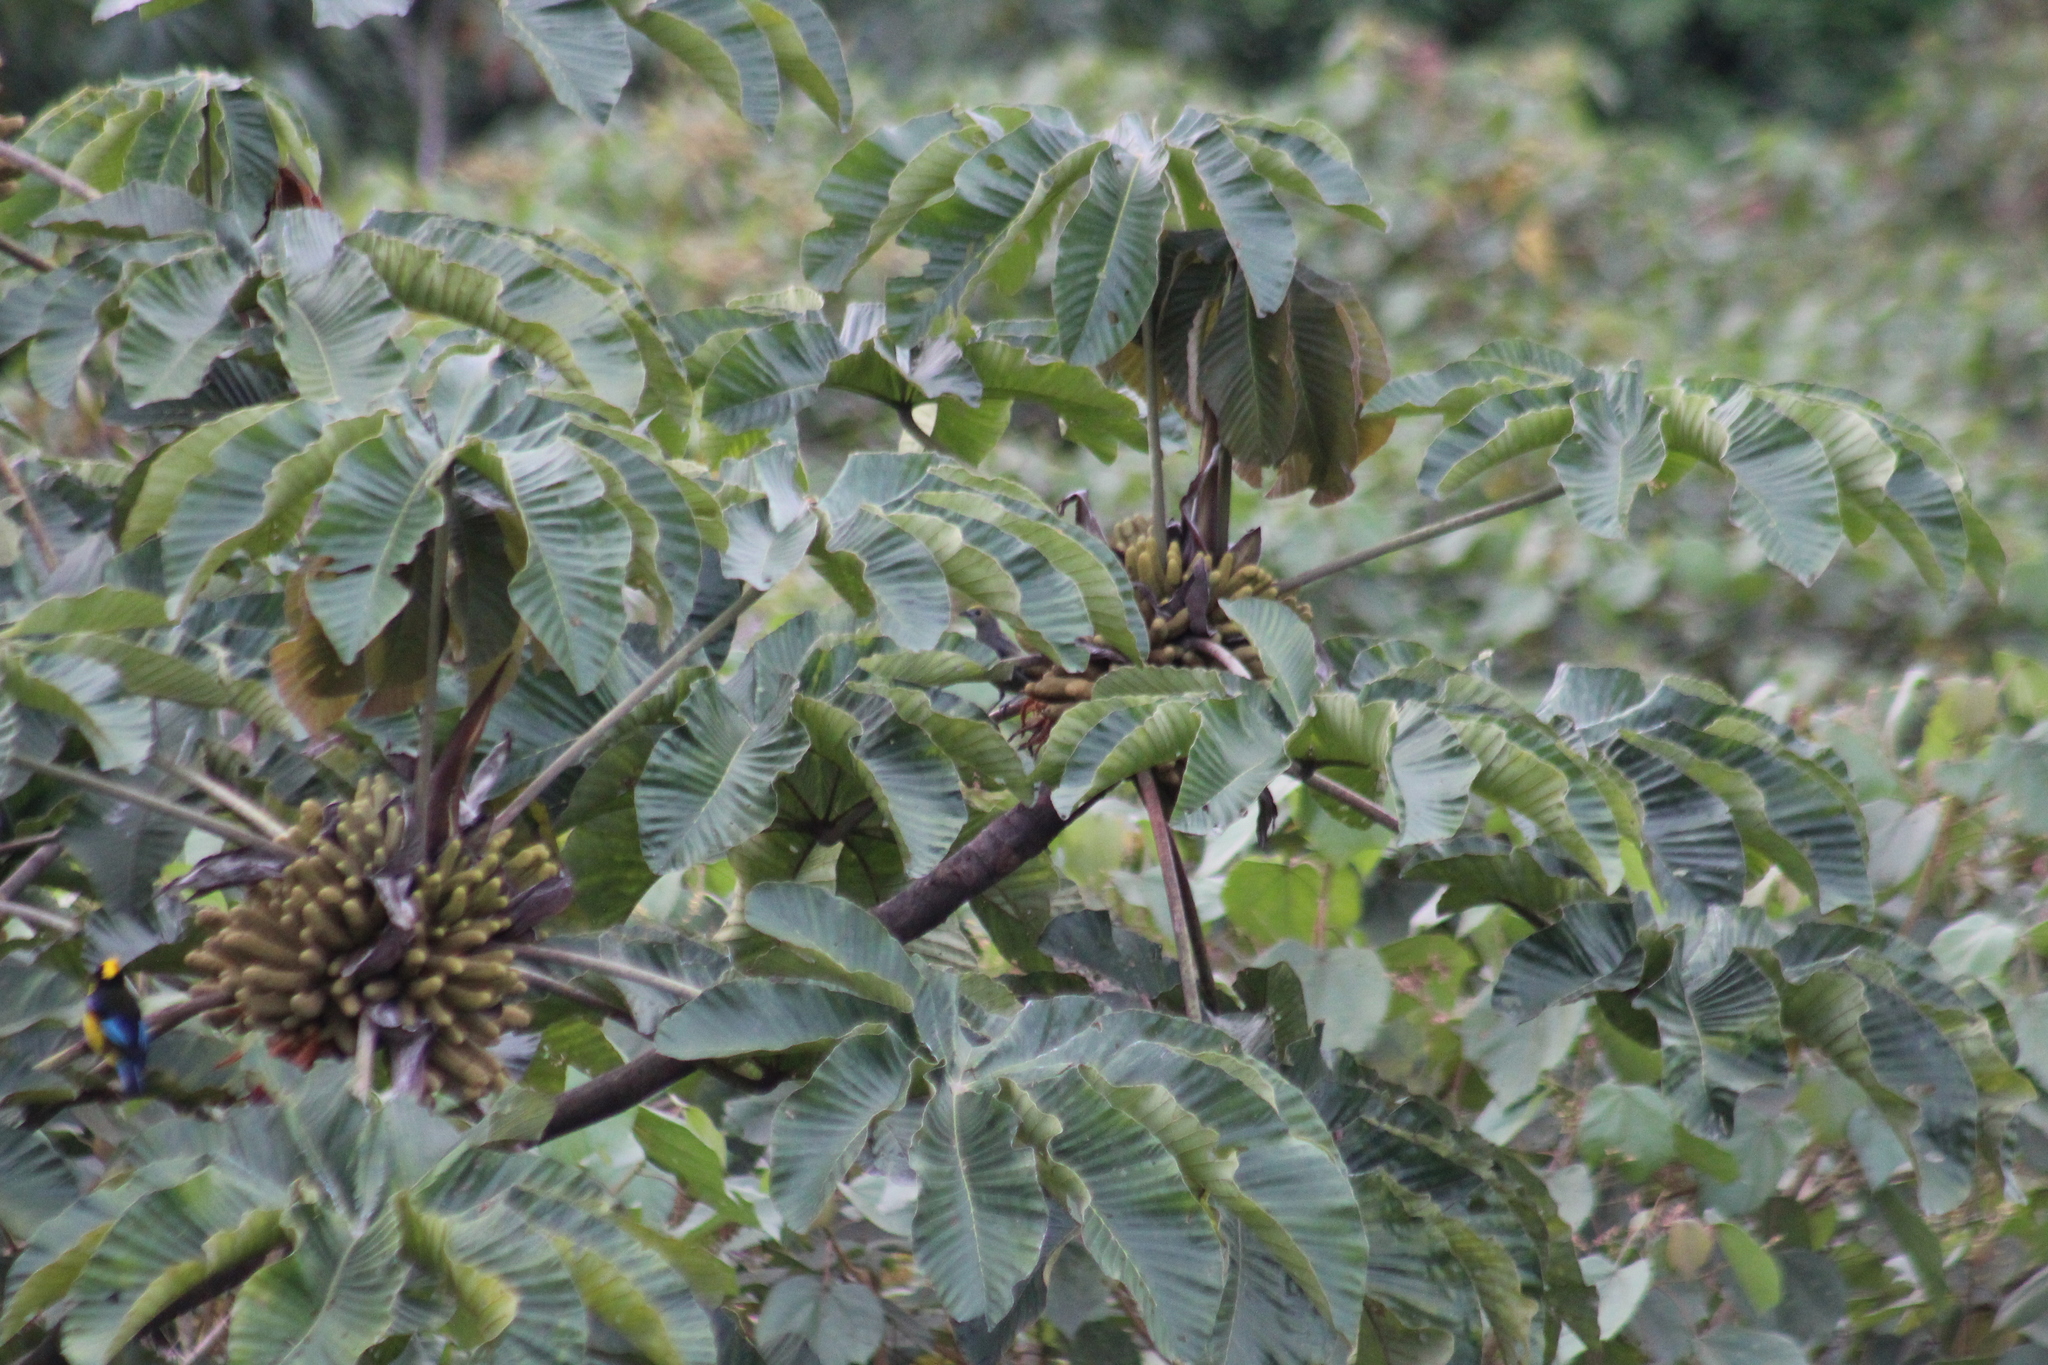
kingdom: Animalia
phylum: Chordata
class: Aves
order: Passeriformes
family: Thraupidae
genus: Thraupis
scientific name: Thraupis palmarum
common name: Palm tanager
